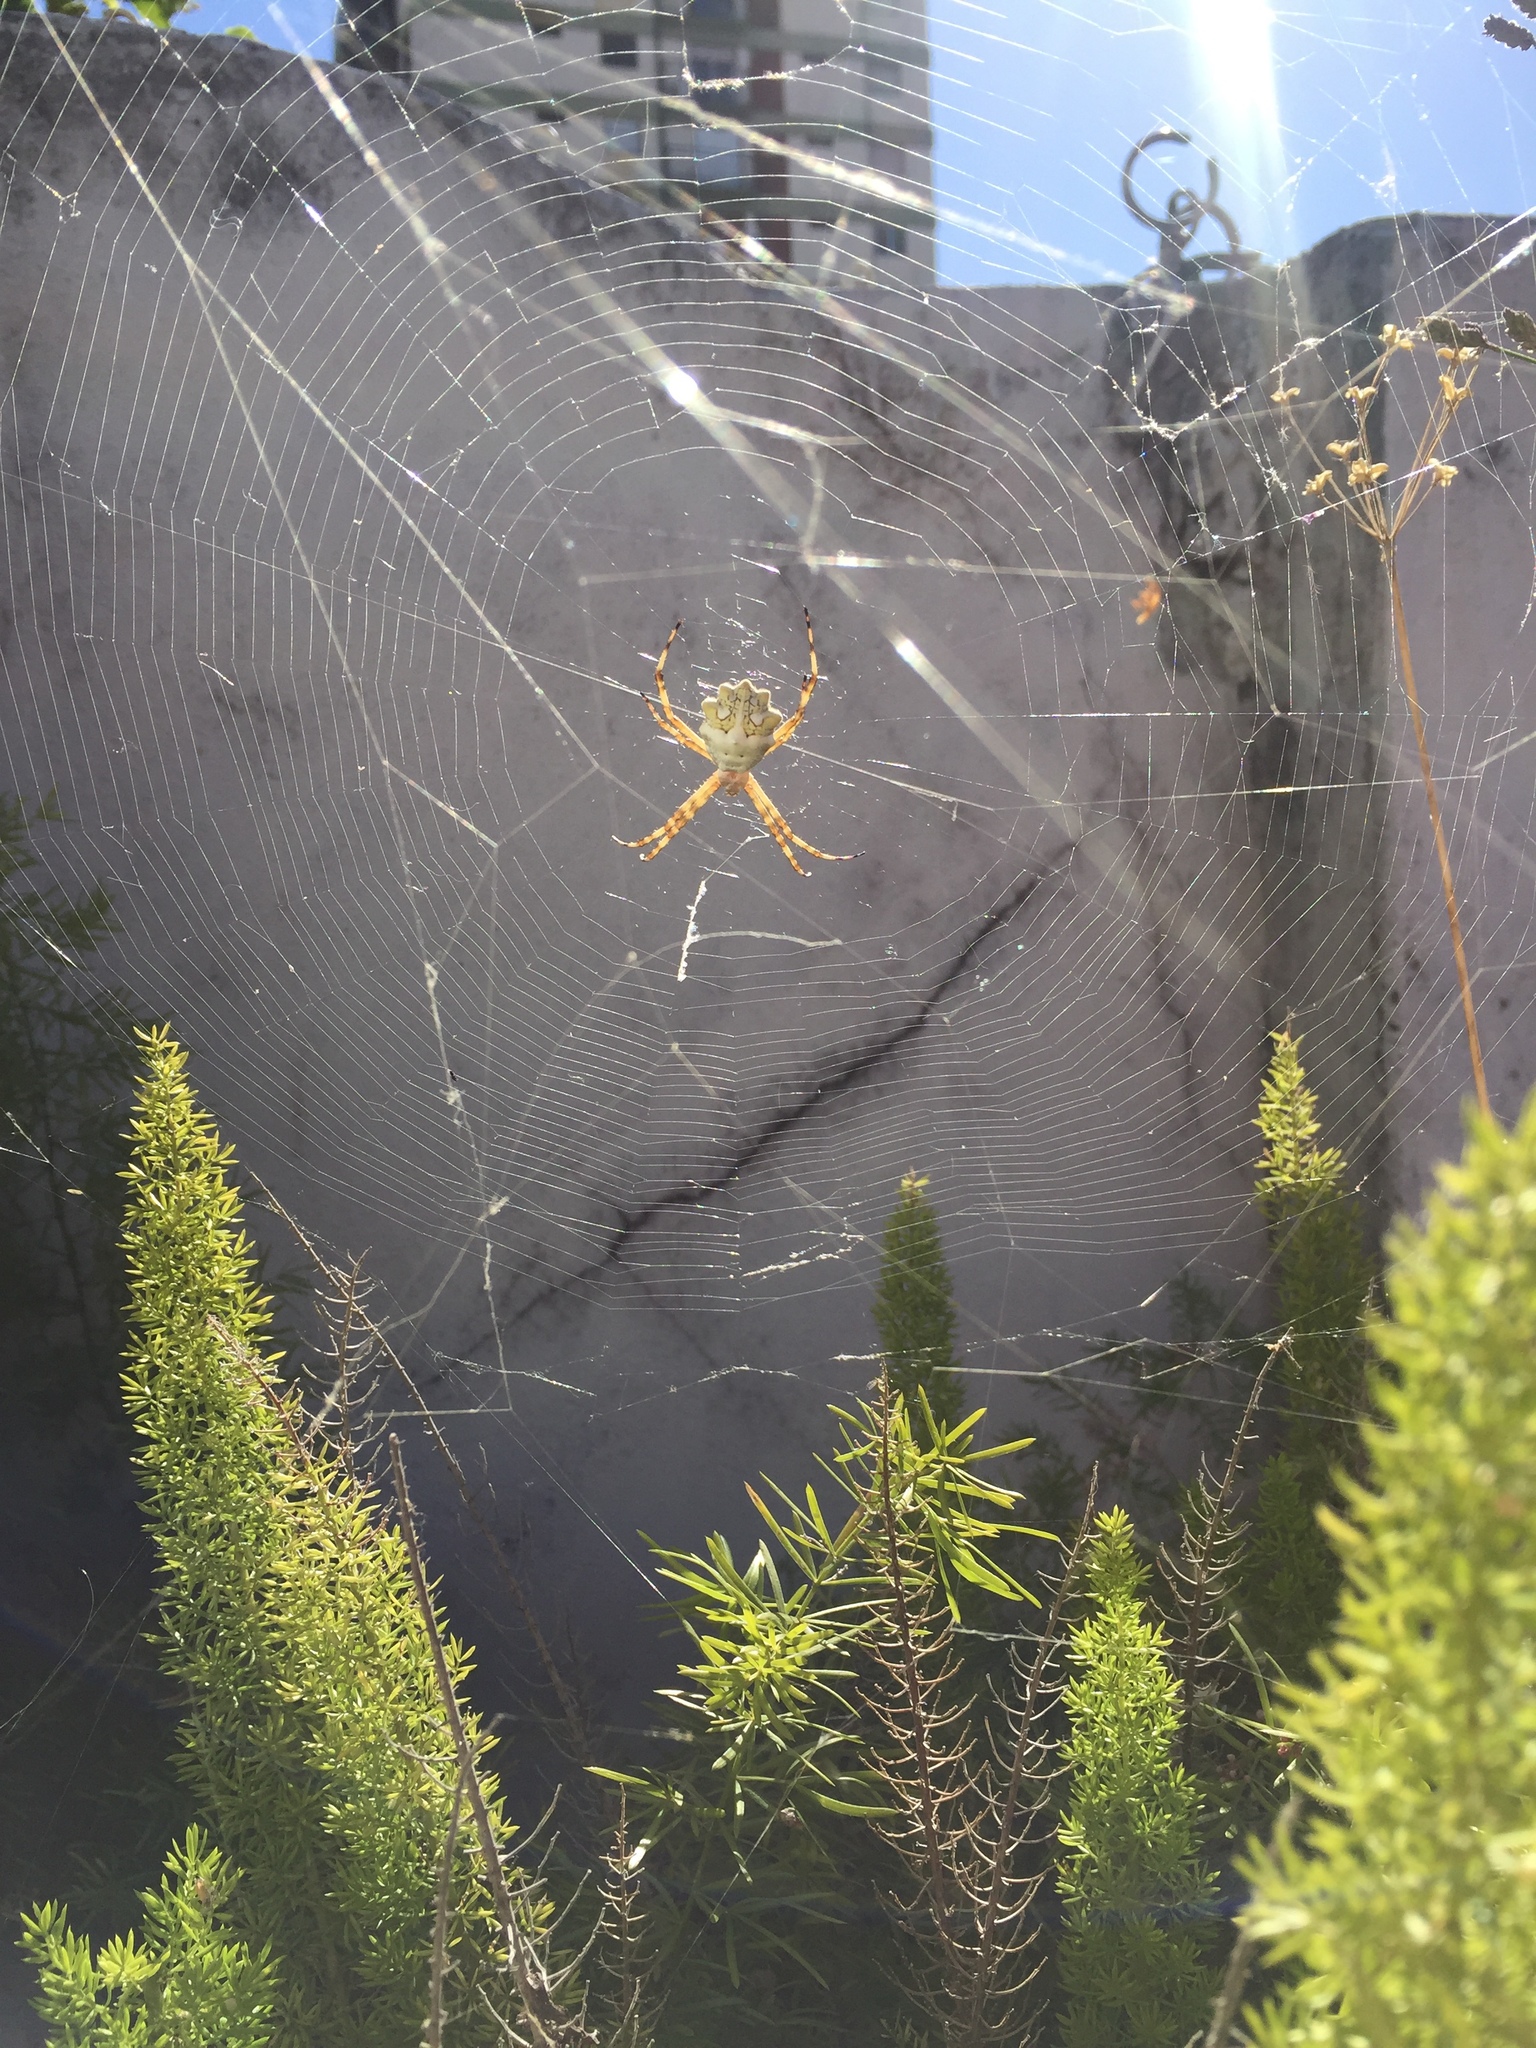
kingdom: Animalia
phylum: Arthropoda
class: Arachnida
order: Araneae
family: Araneidae
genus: Argiope
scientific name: Argiope argentata
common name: Orb weavers
